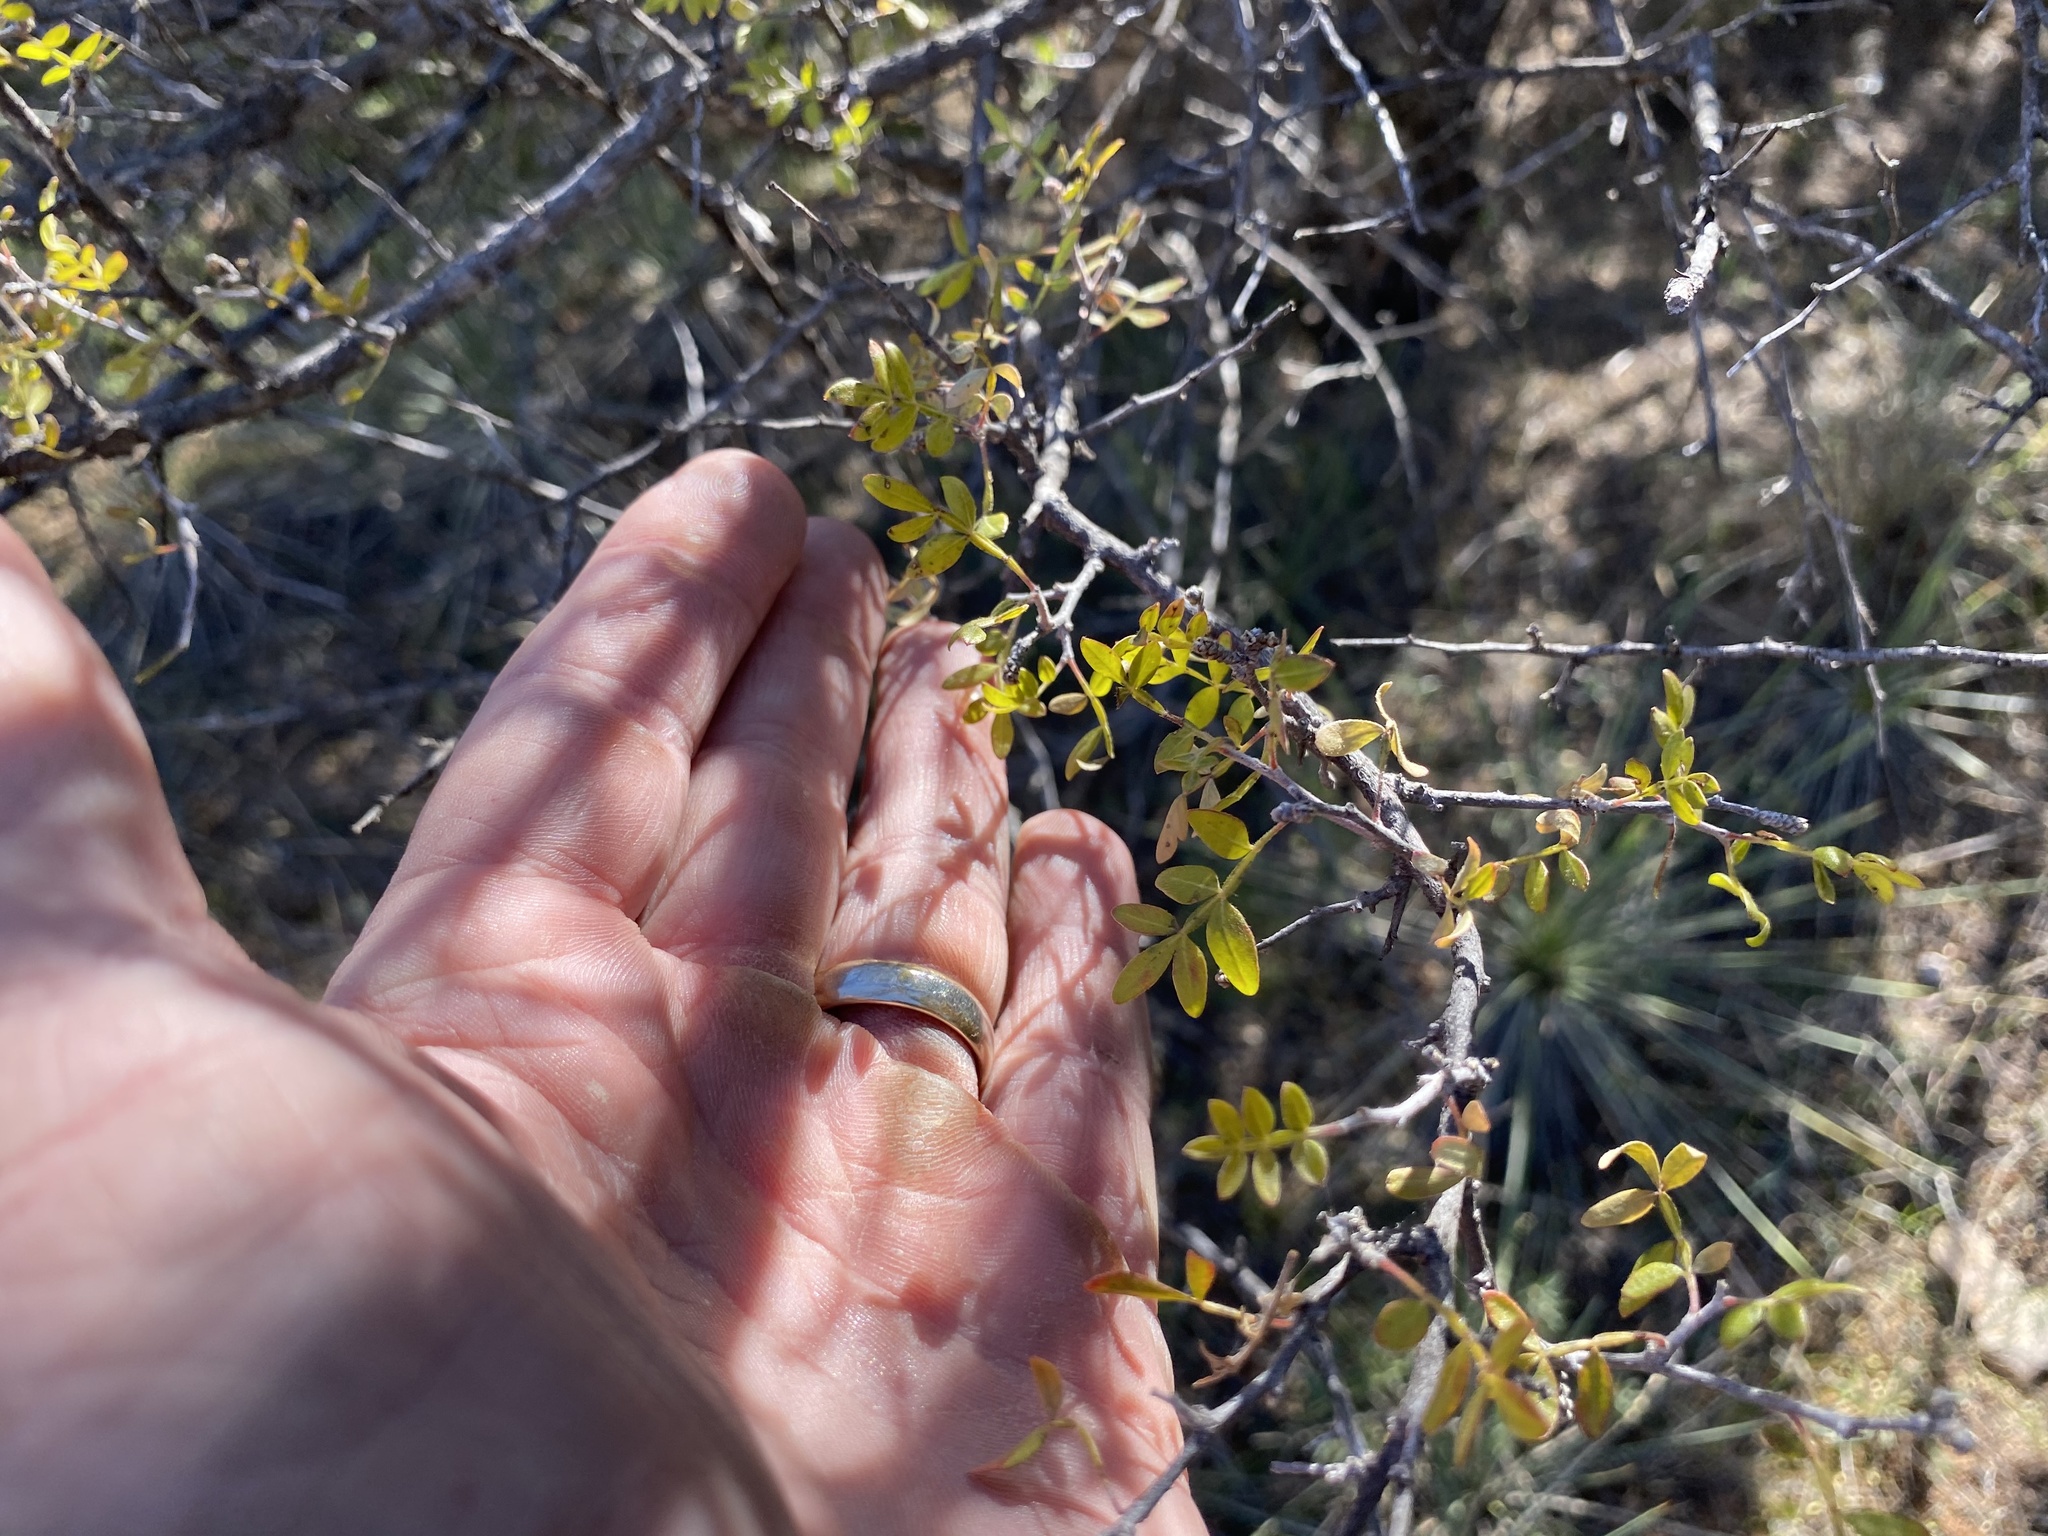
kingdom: Plantae
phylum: Tracheophyta
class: Magnoliopsida
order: Sapindales
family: Anacardiaceae
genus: Rhus
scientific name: Rhus microphylla
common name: Desert sumac
